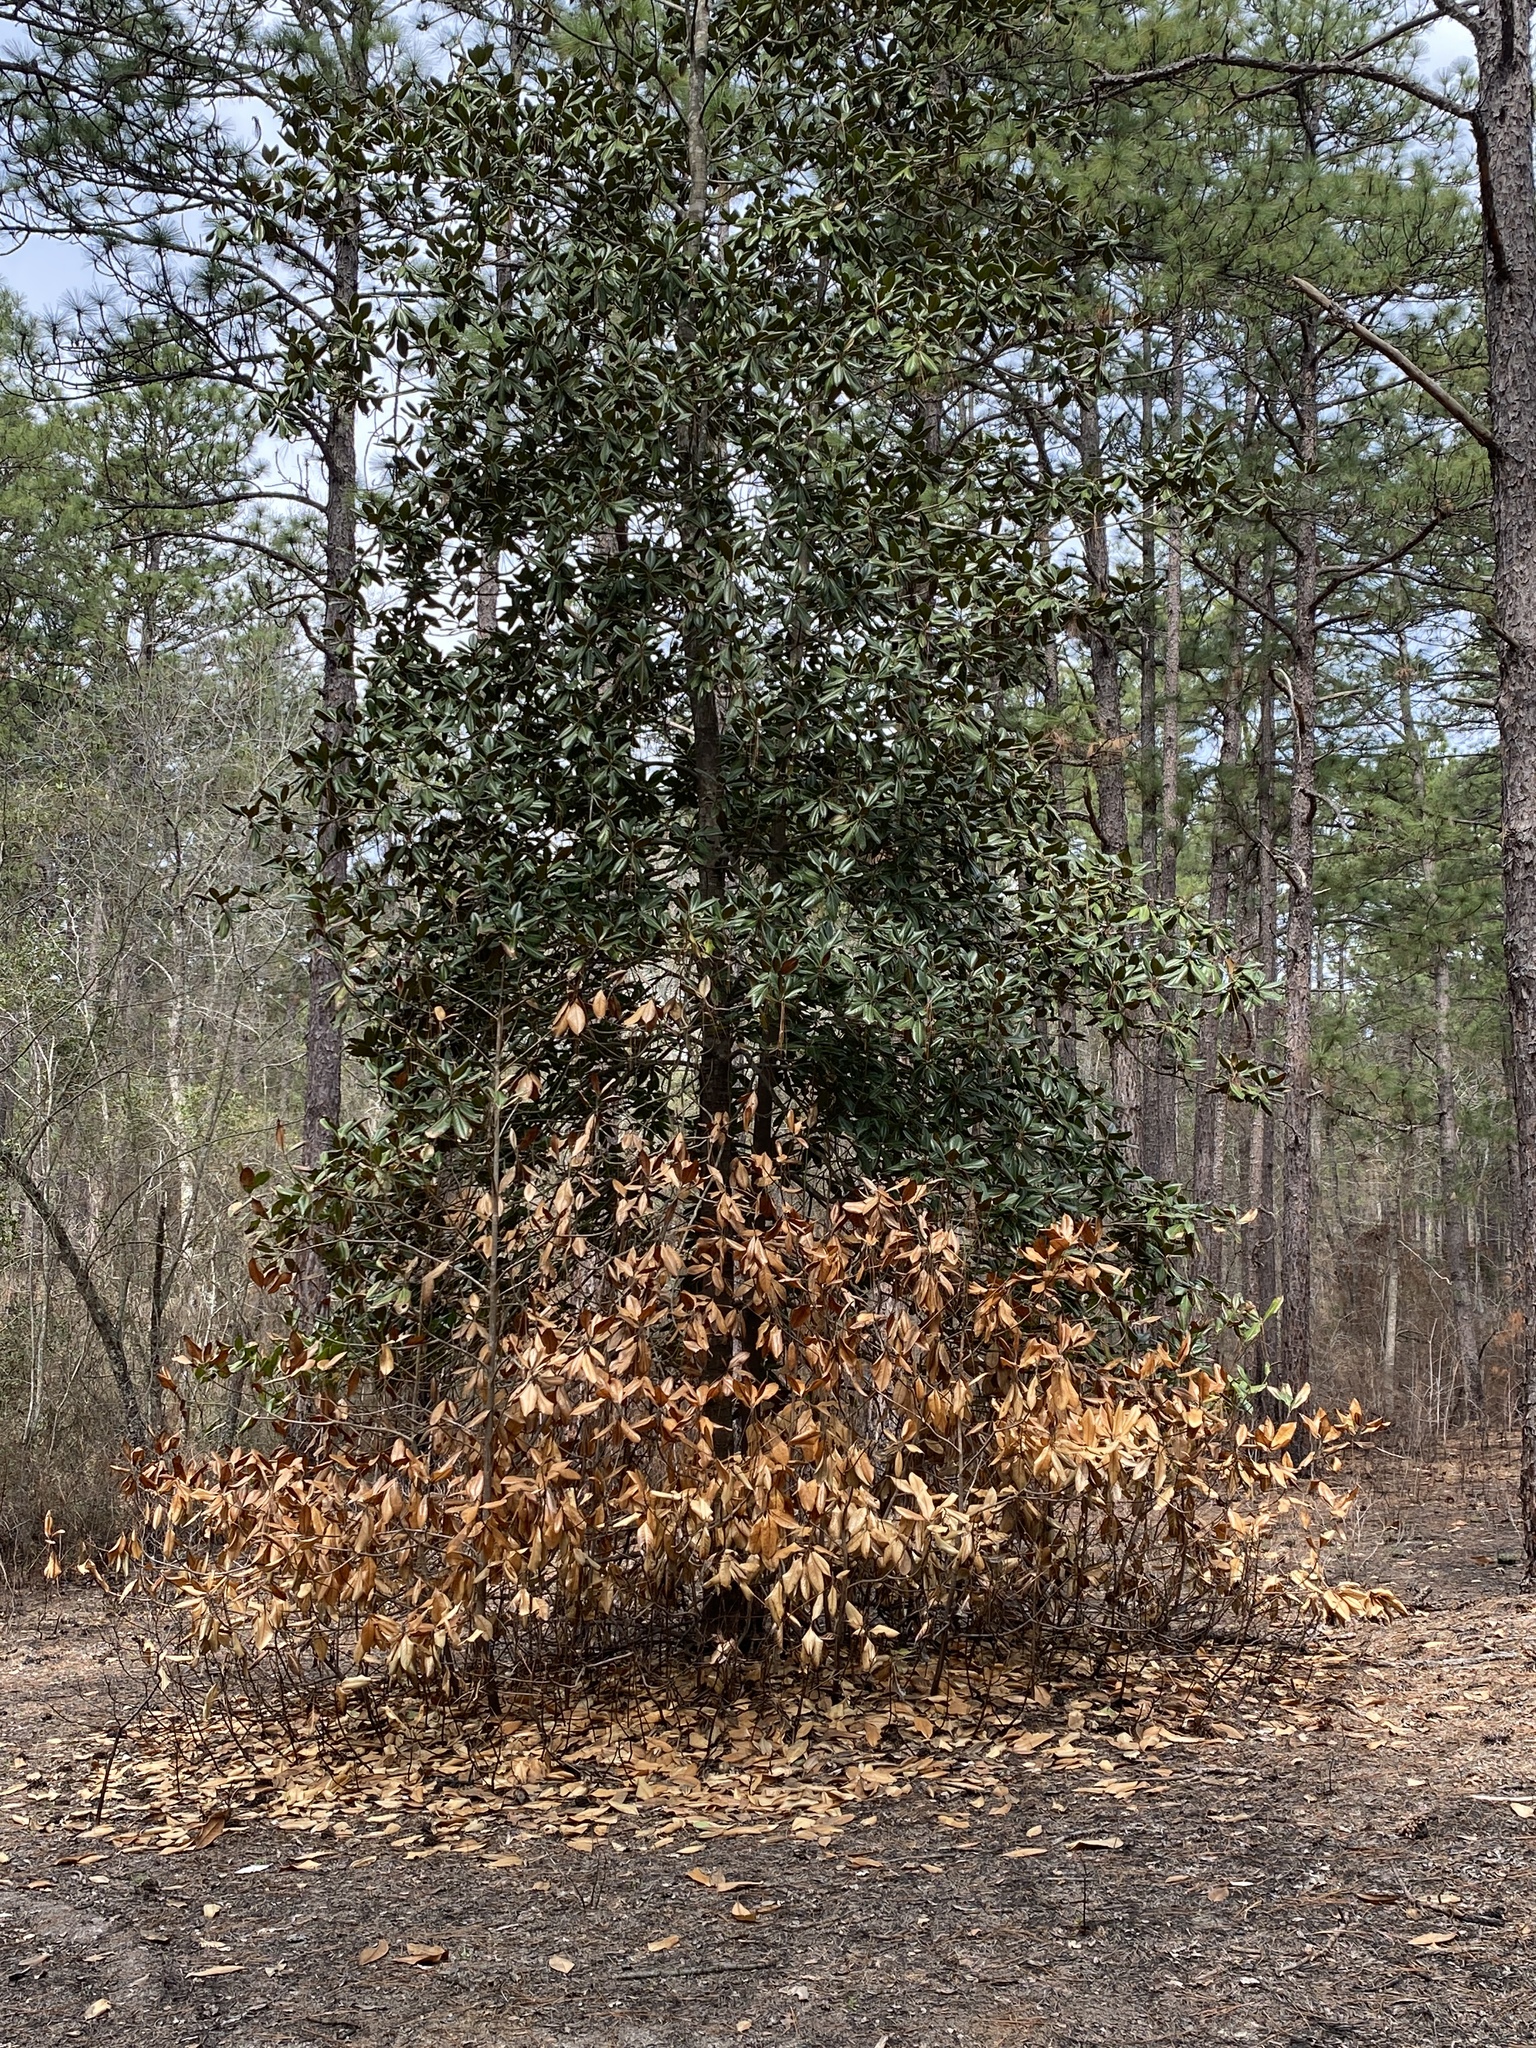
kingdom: Plantae
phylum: Tracheophyta
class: Magnoliopsida
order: Magnoliales
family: Magnoliaceae
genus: Magnolia
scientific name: Magnolia grandiflora
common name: Southern magnolia
